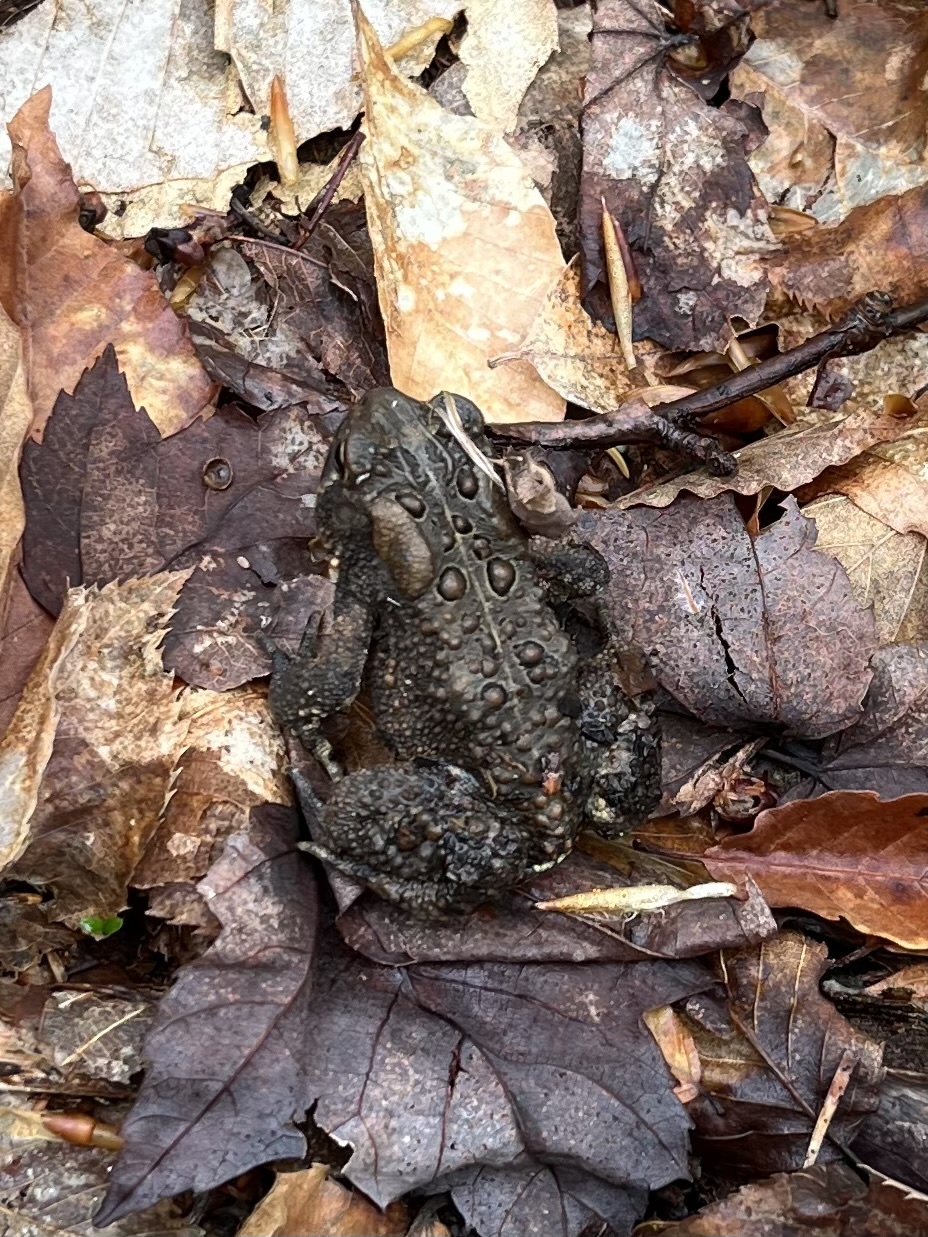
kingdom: Animalia
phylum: Chordata
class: Amphibia
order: Anura
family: Bufonidae
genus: Anaxyrus
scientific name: Anaxyrus americanus
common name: American toad
